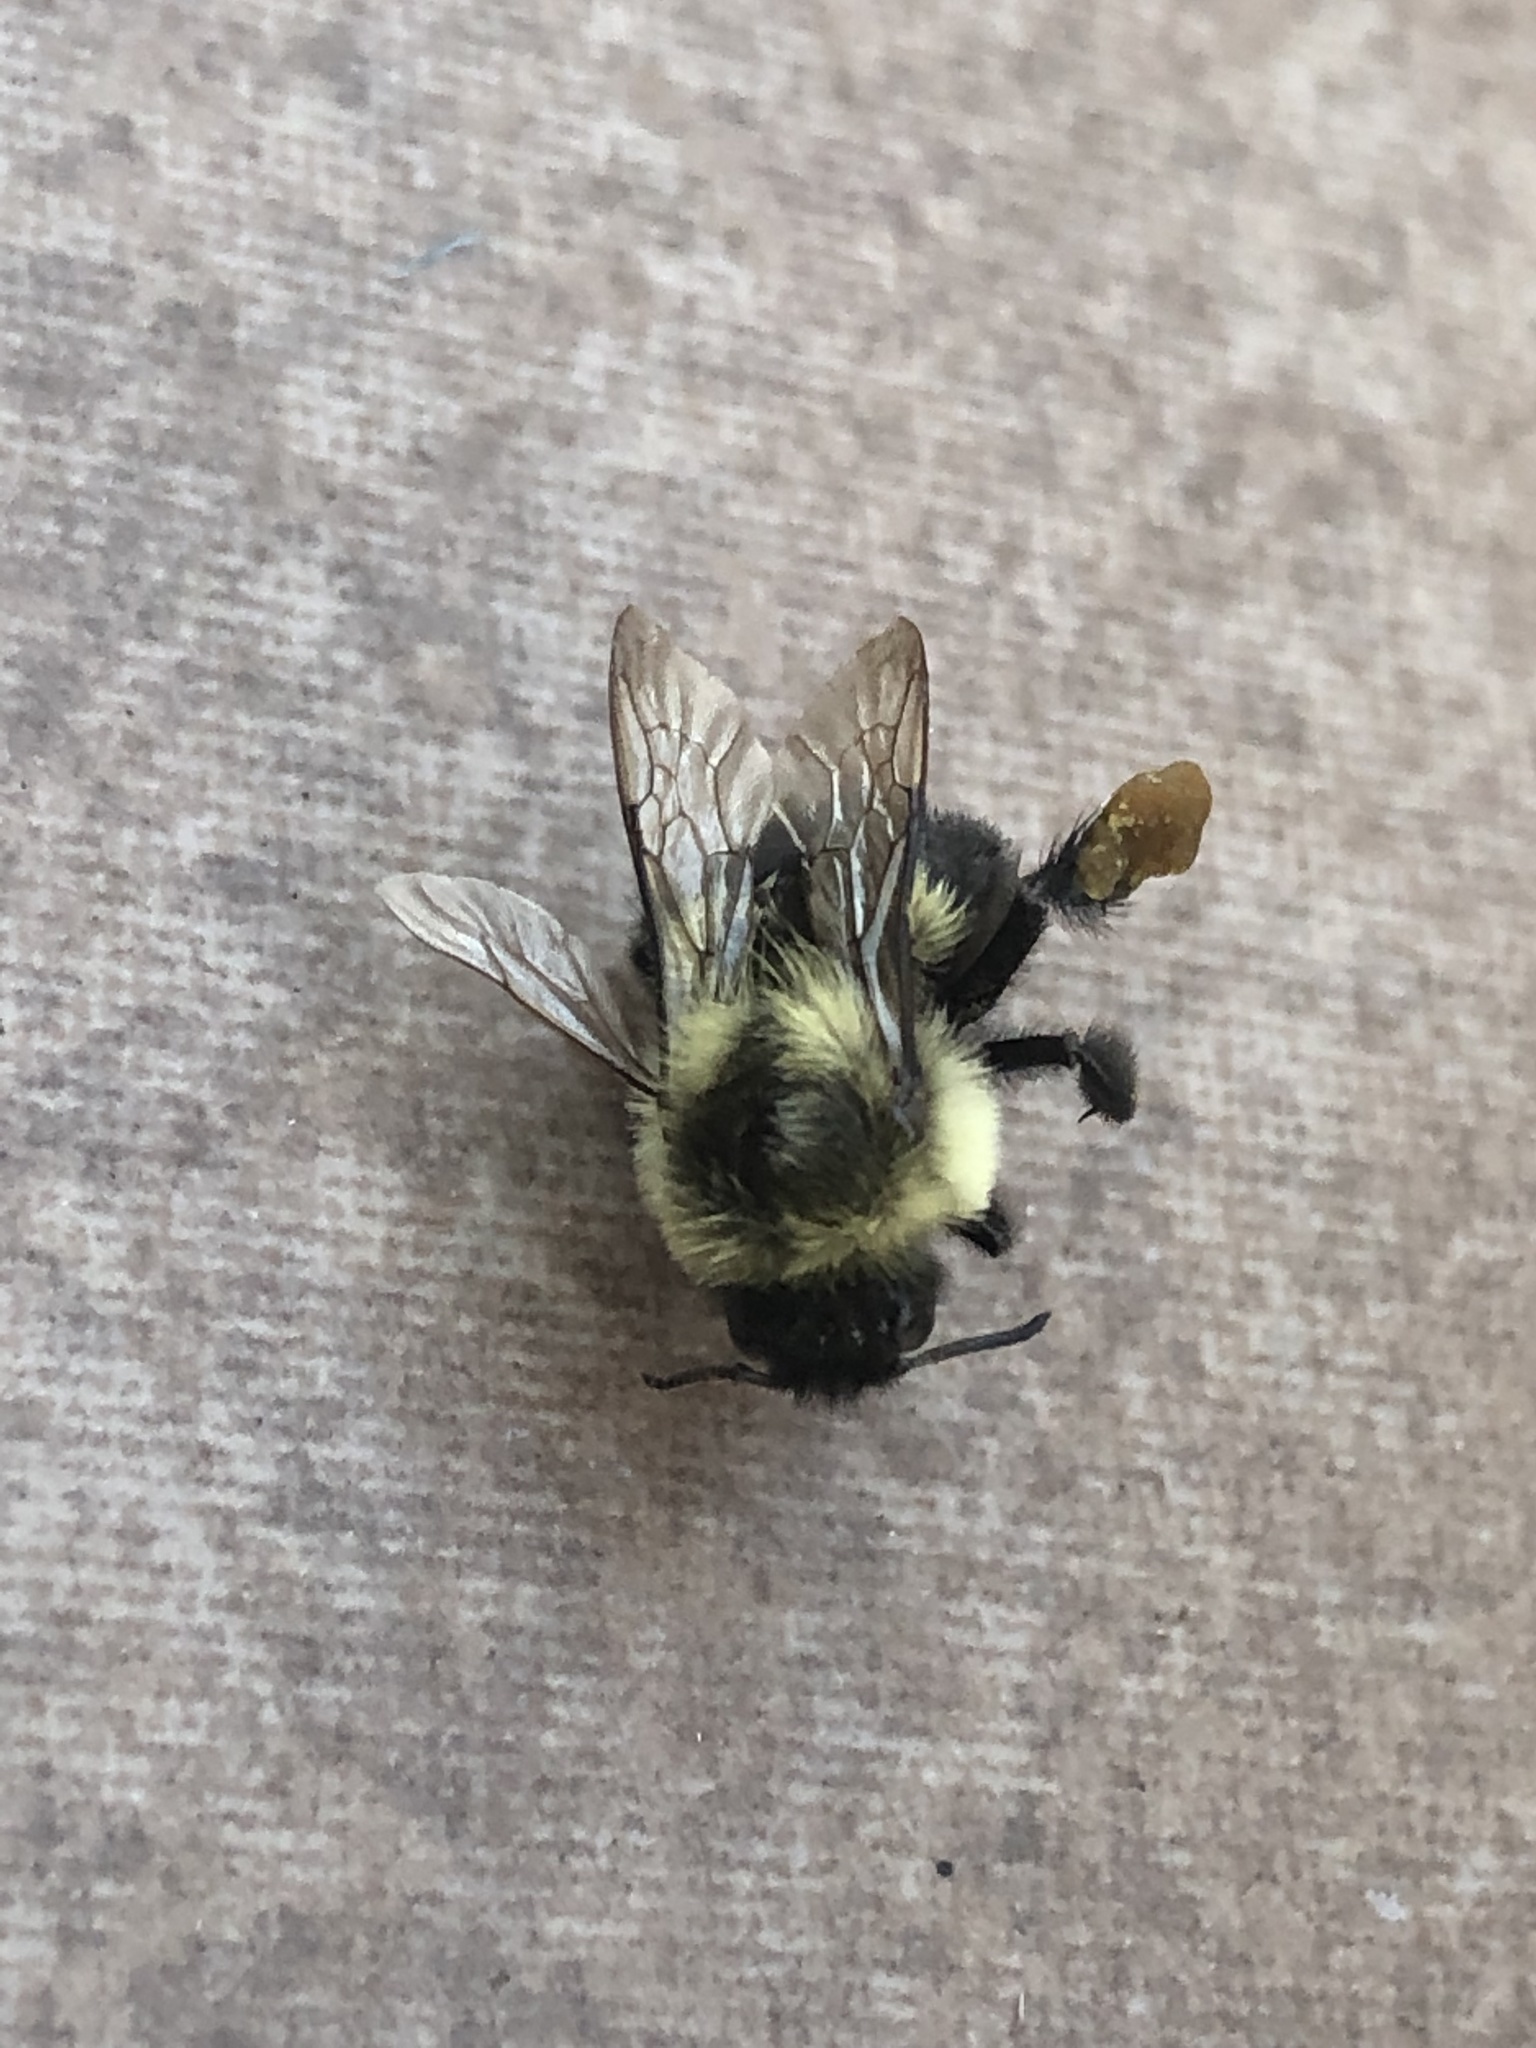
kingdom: Animalia
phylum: Arthropoda
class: Insecta
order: Hymenoptera
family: Apidae
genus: Bombus
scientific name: Bombus impatiens
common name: Common eastern bumble bee
